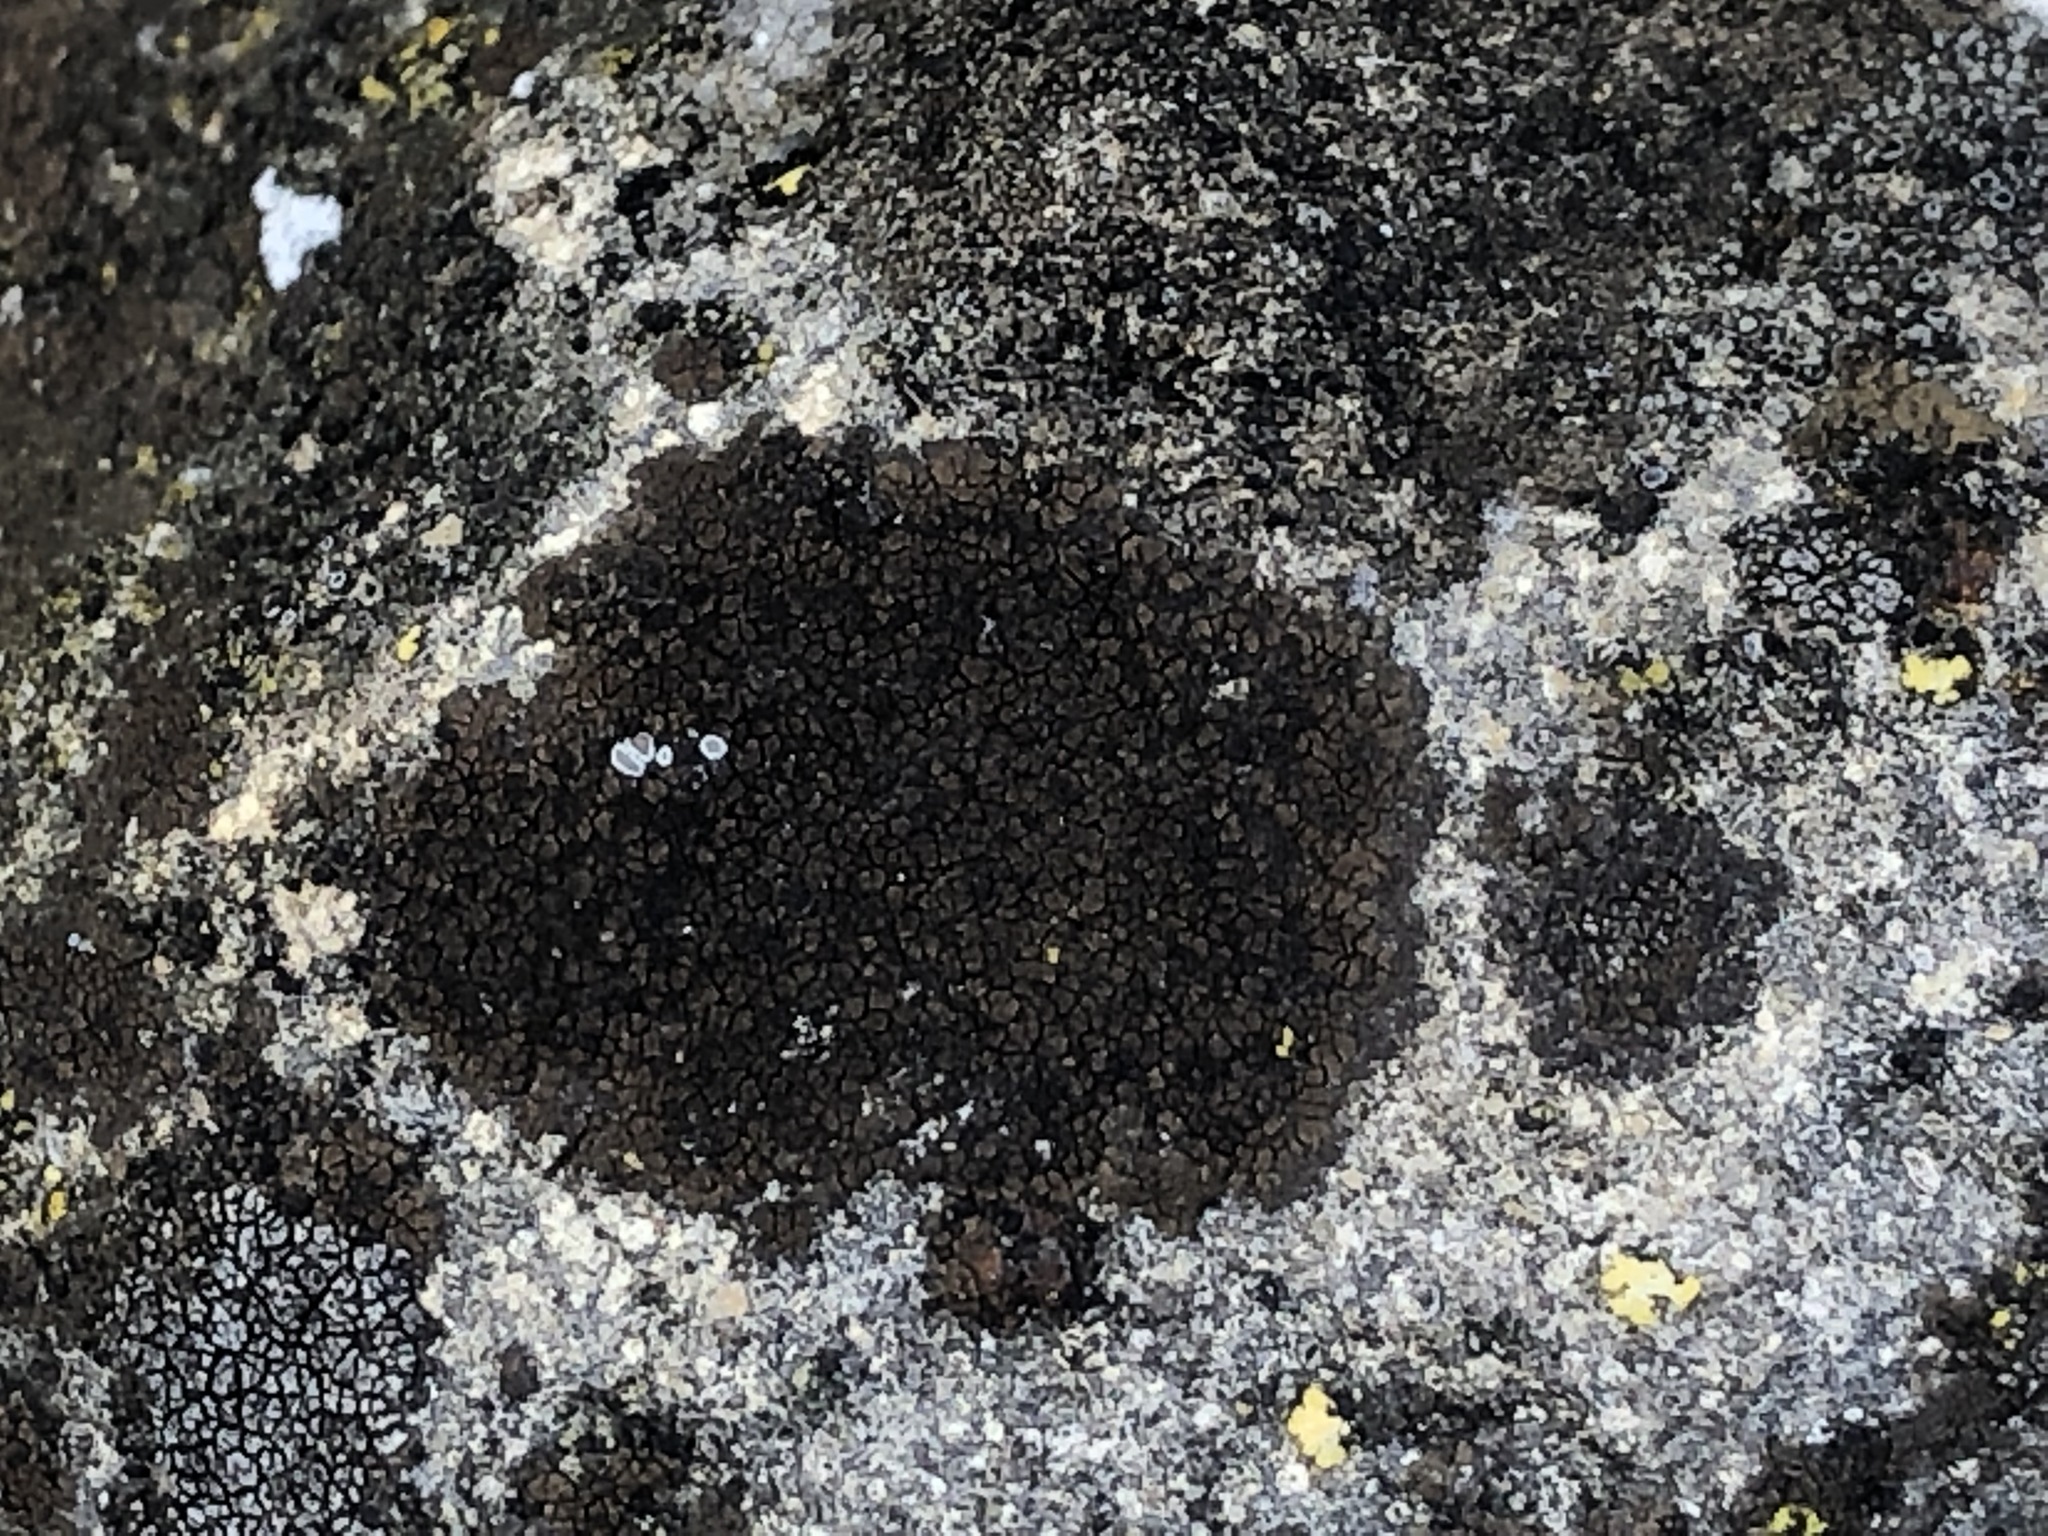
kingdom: Fungi
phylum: Ascomycota
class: Eurotiomycetes
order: Verrucariales
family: Verrucariaceae
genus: Verrucaria
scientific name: Verrucaria nigrescens
